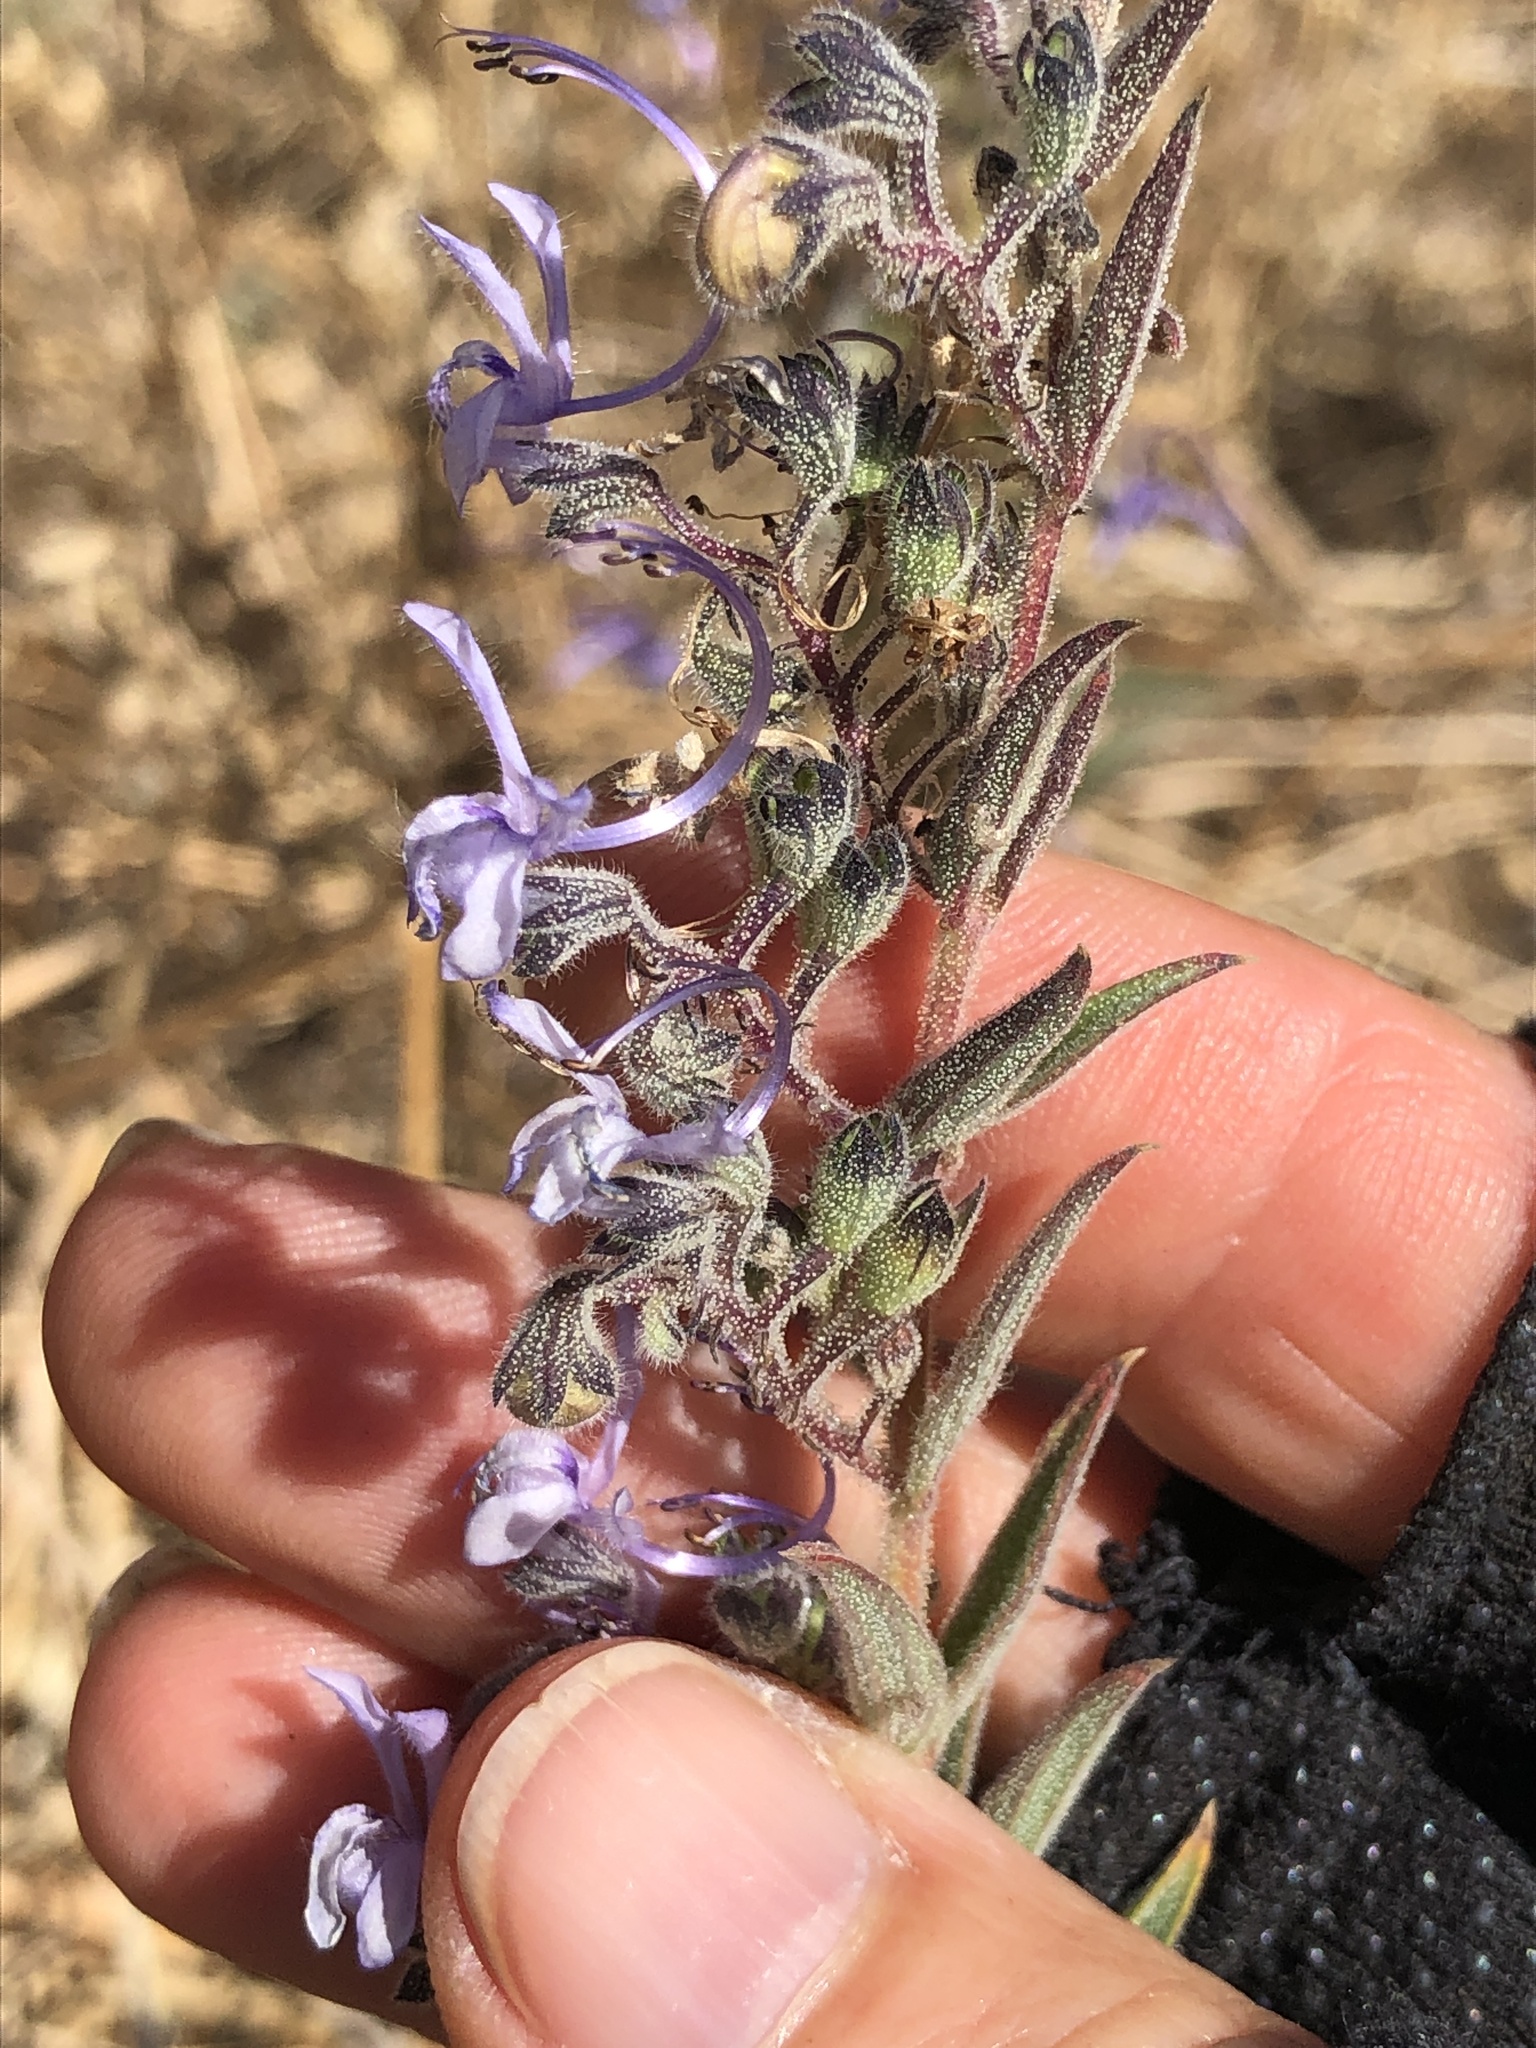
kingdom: Plantae
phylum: Tracheophyta
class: Magnoliopsida
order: Lamiales
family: Lamiaceae
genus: Trichostema
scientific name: Trichostema lanceolatum
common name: Vinegar-weed
